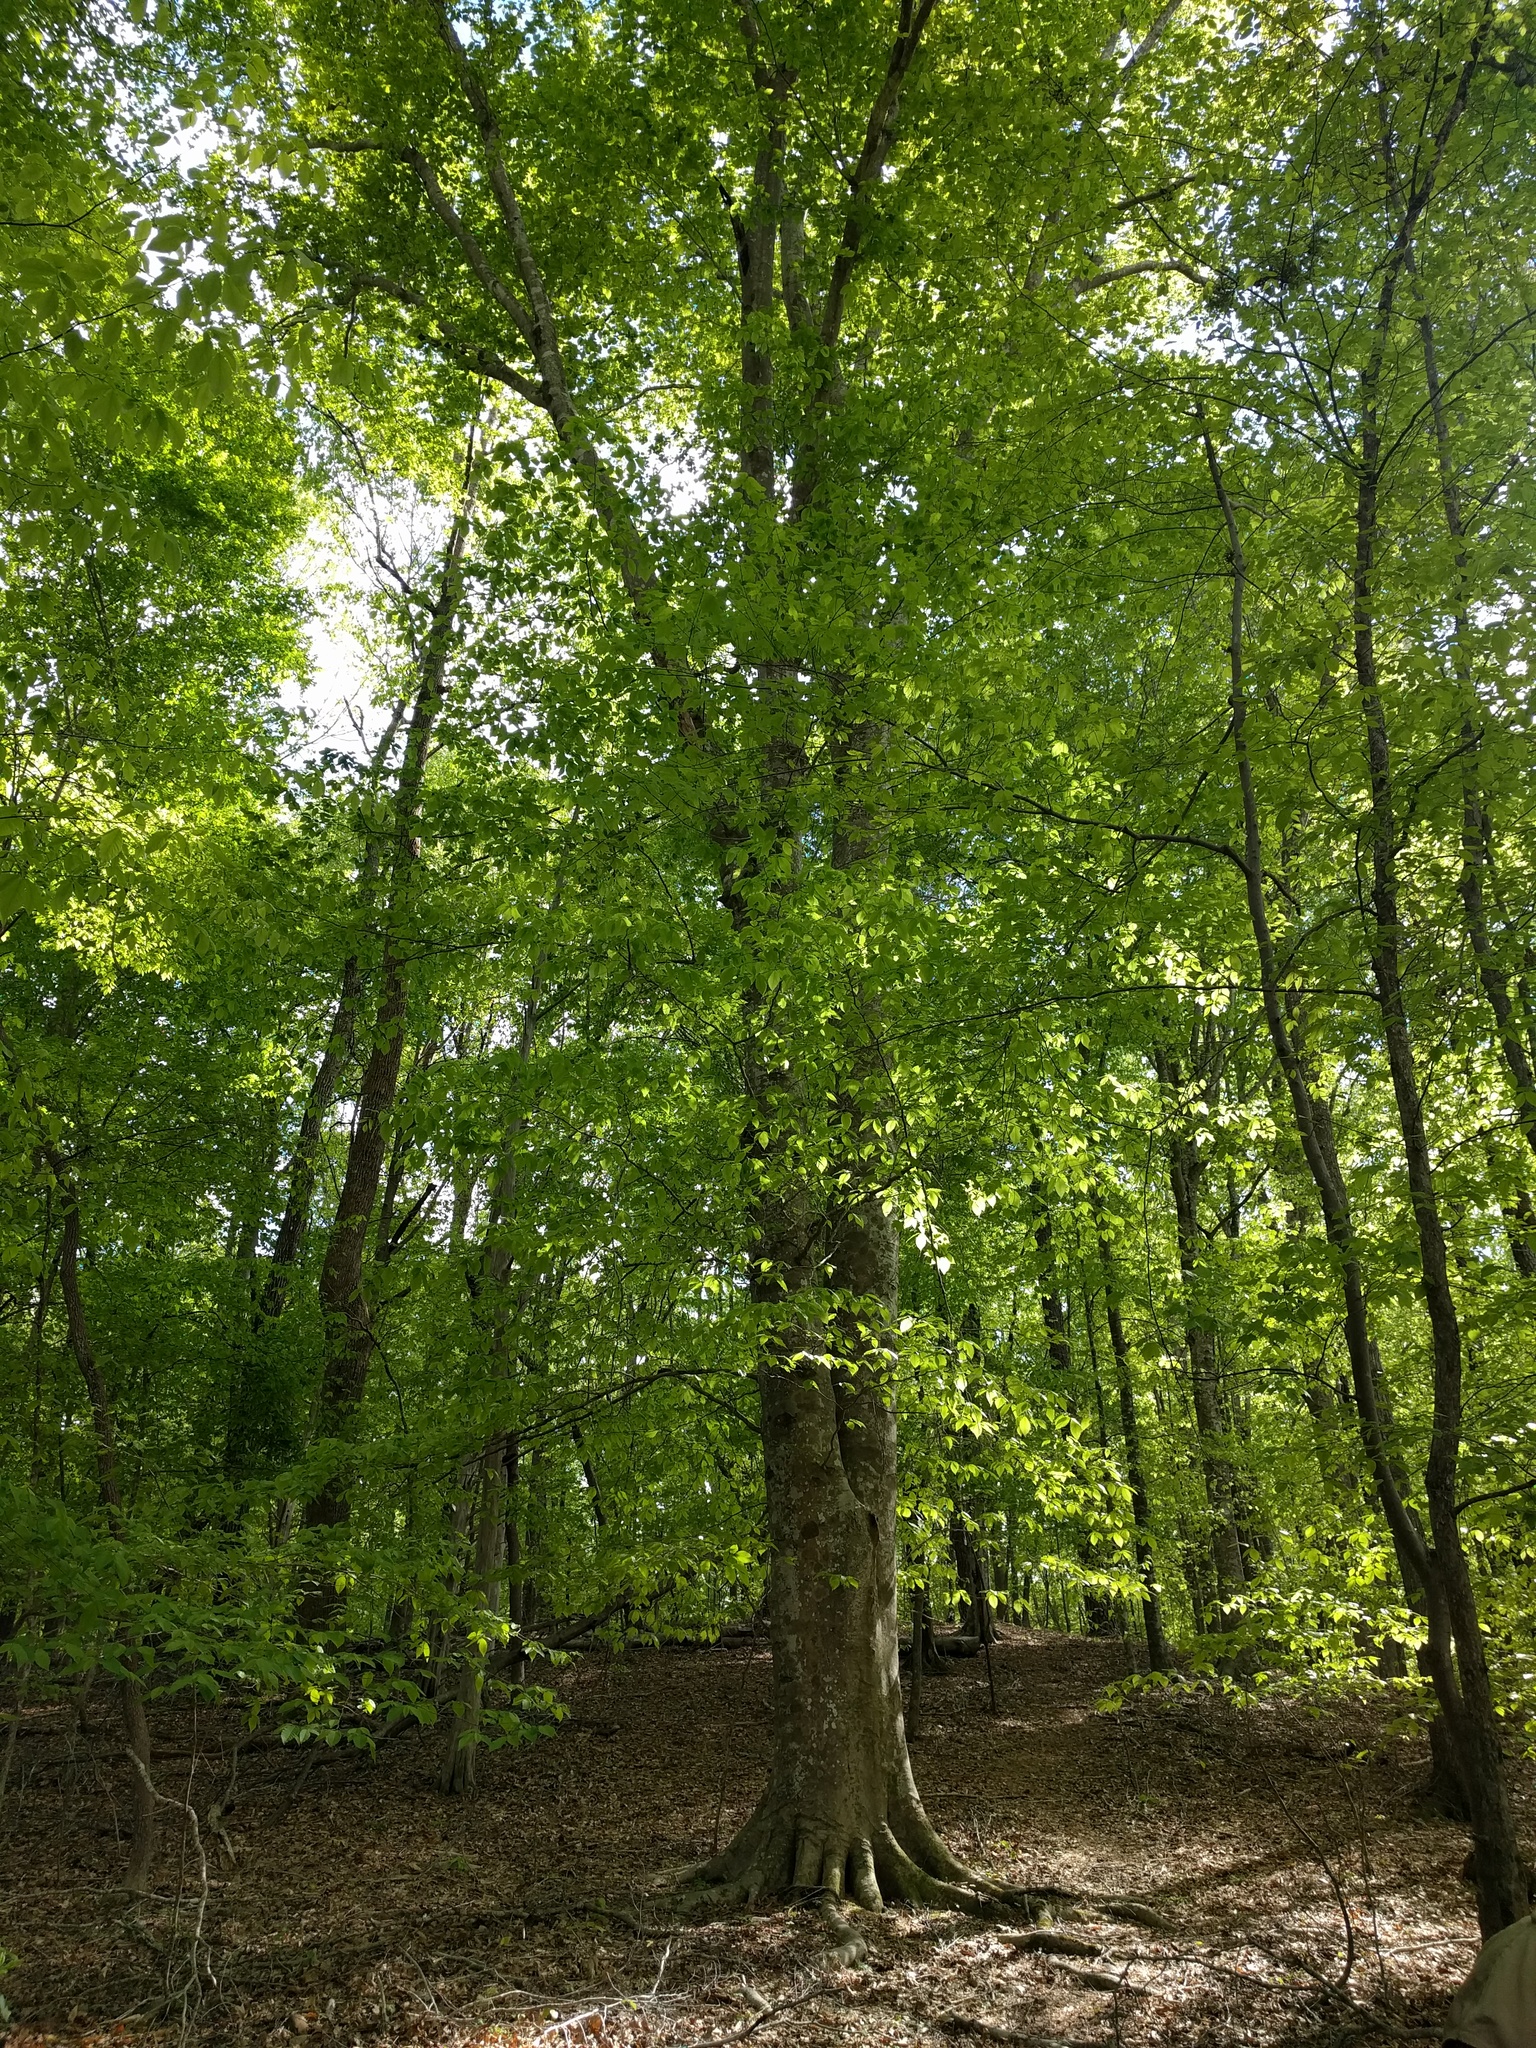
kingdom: Plantae
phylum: Tracheophyta
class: Magnoliopsida
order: Fagales
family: Fagaceae
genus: Fagus
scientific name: Fagus grandifolia
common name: American beech
